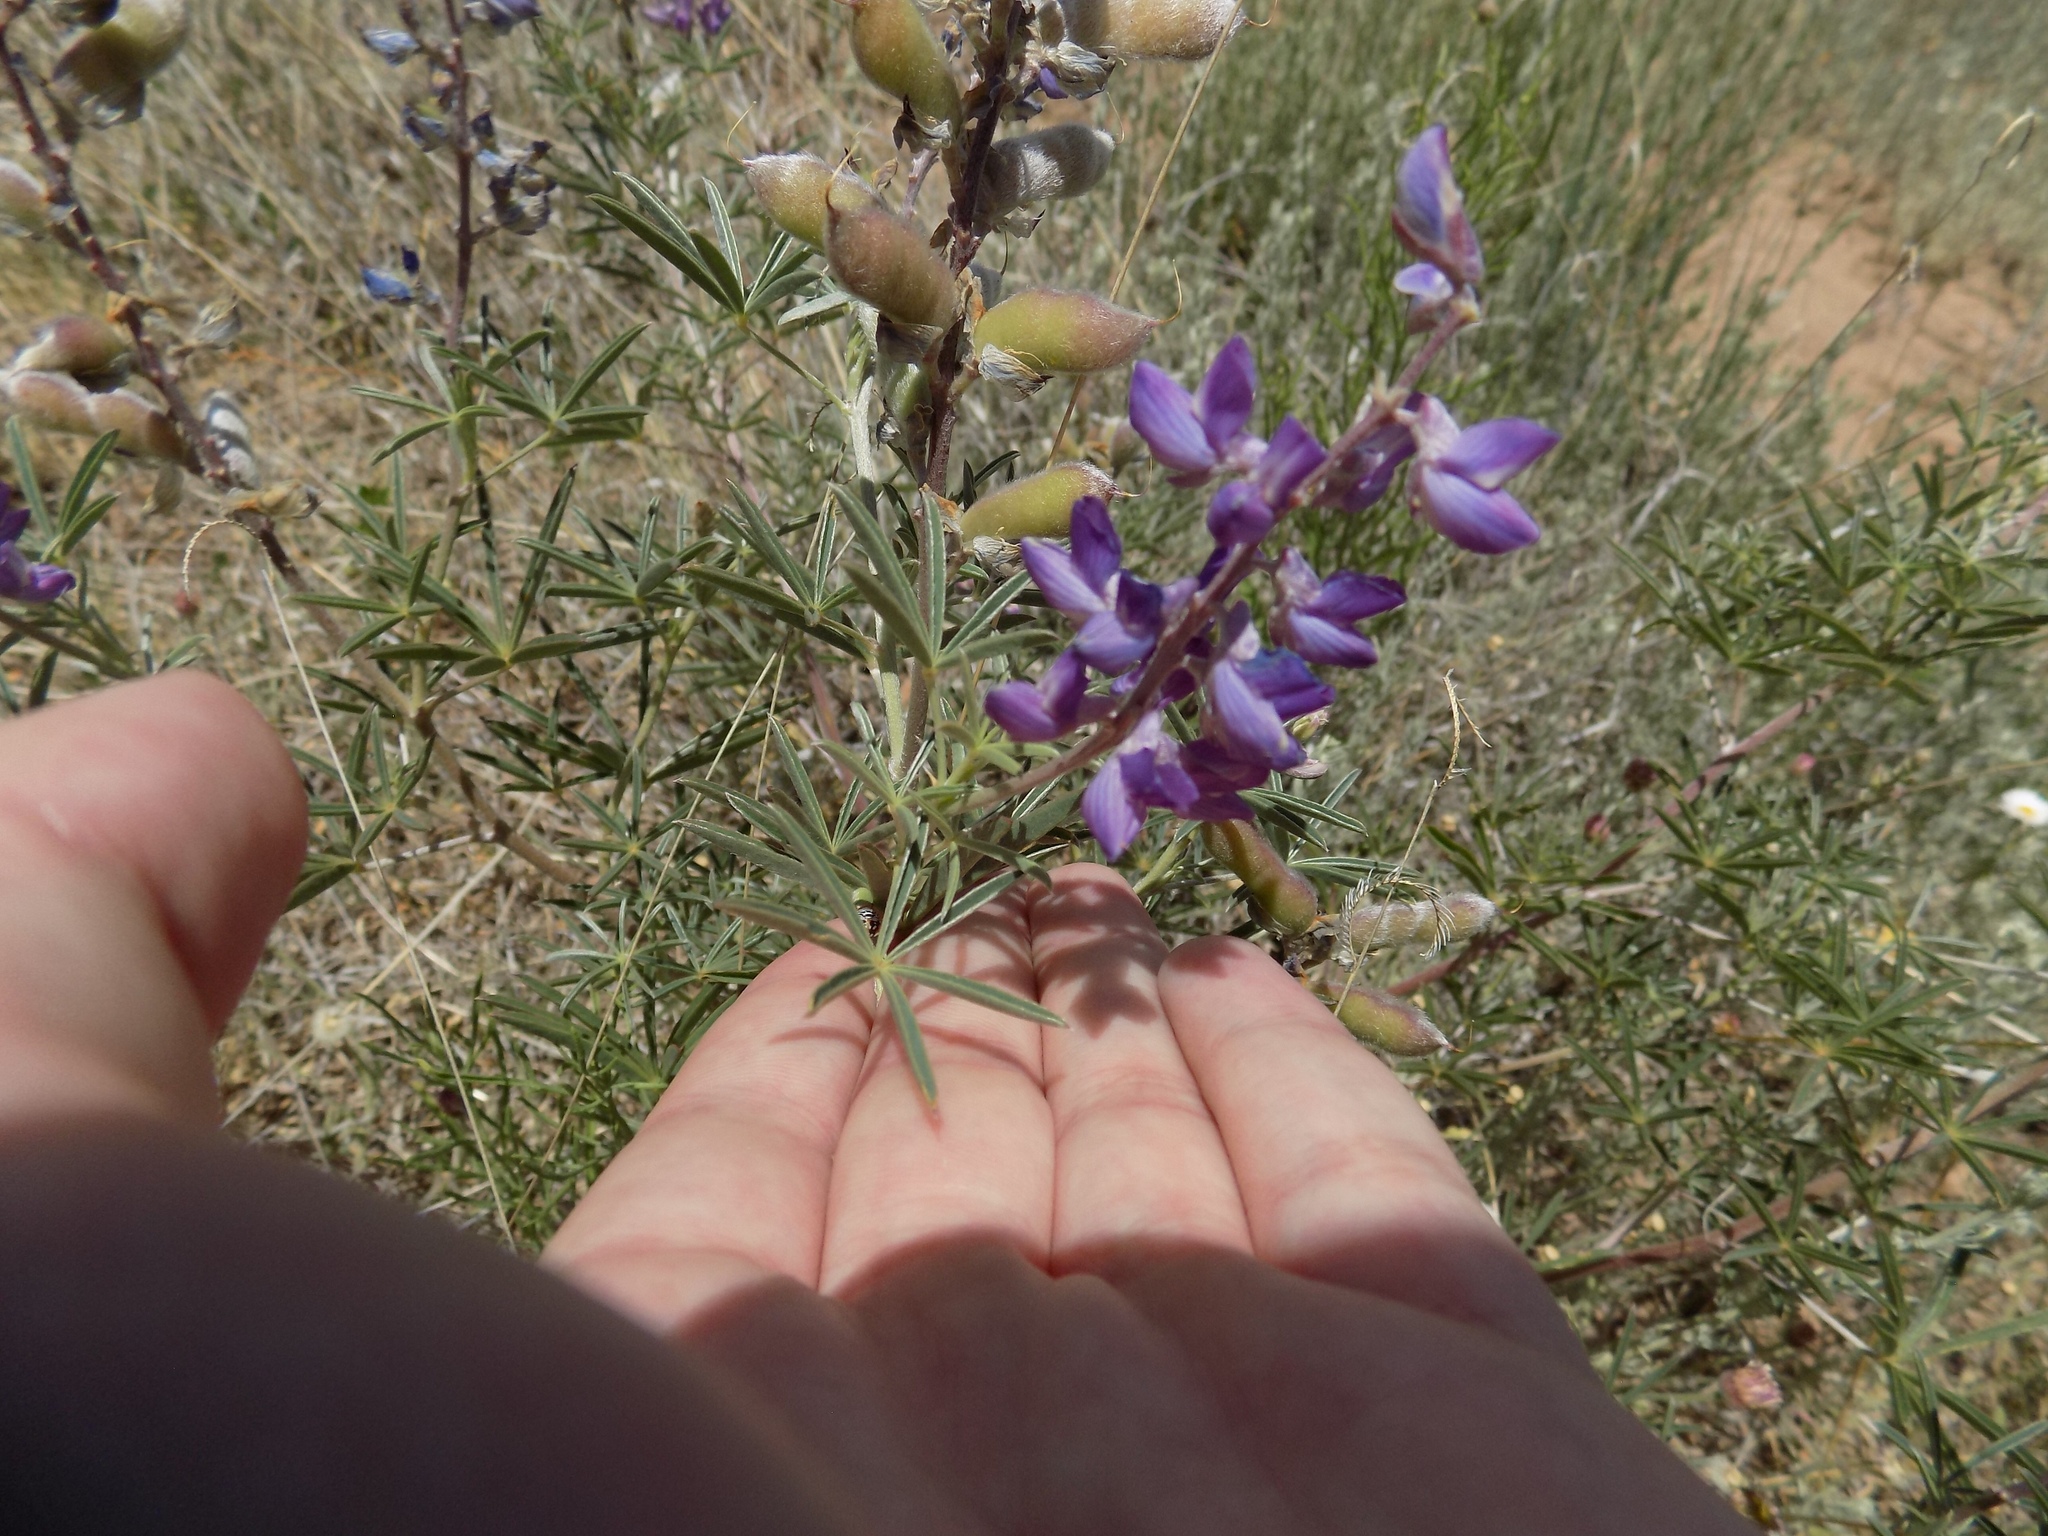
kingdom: Plantae
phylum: Tracheophyta
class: Magnoliopsida
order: Fabales
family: Fabaceae
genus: Lupinus
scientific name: Lupinus argenteus
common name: Silvery lupine
